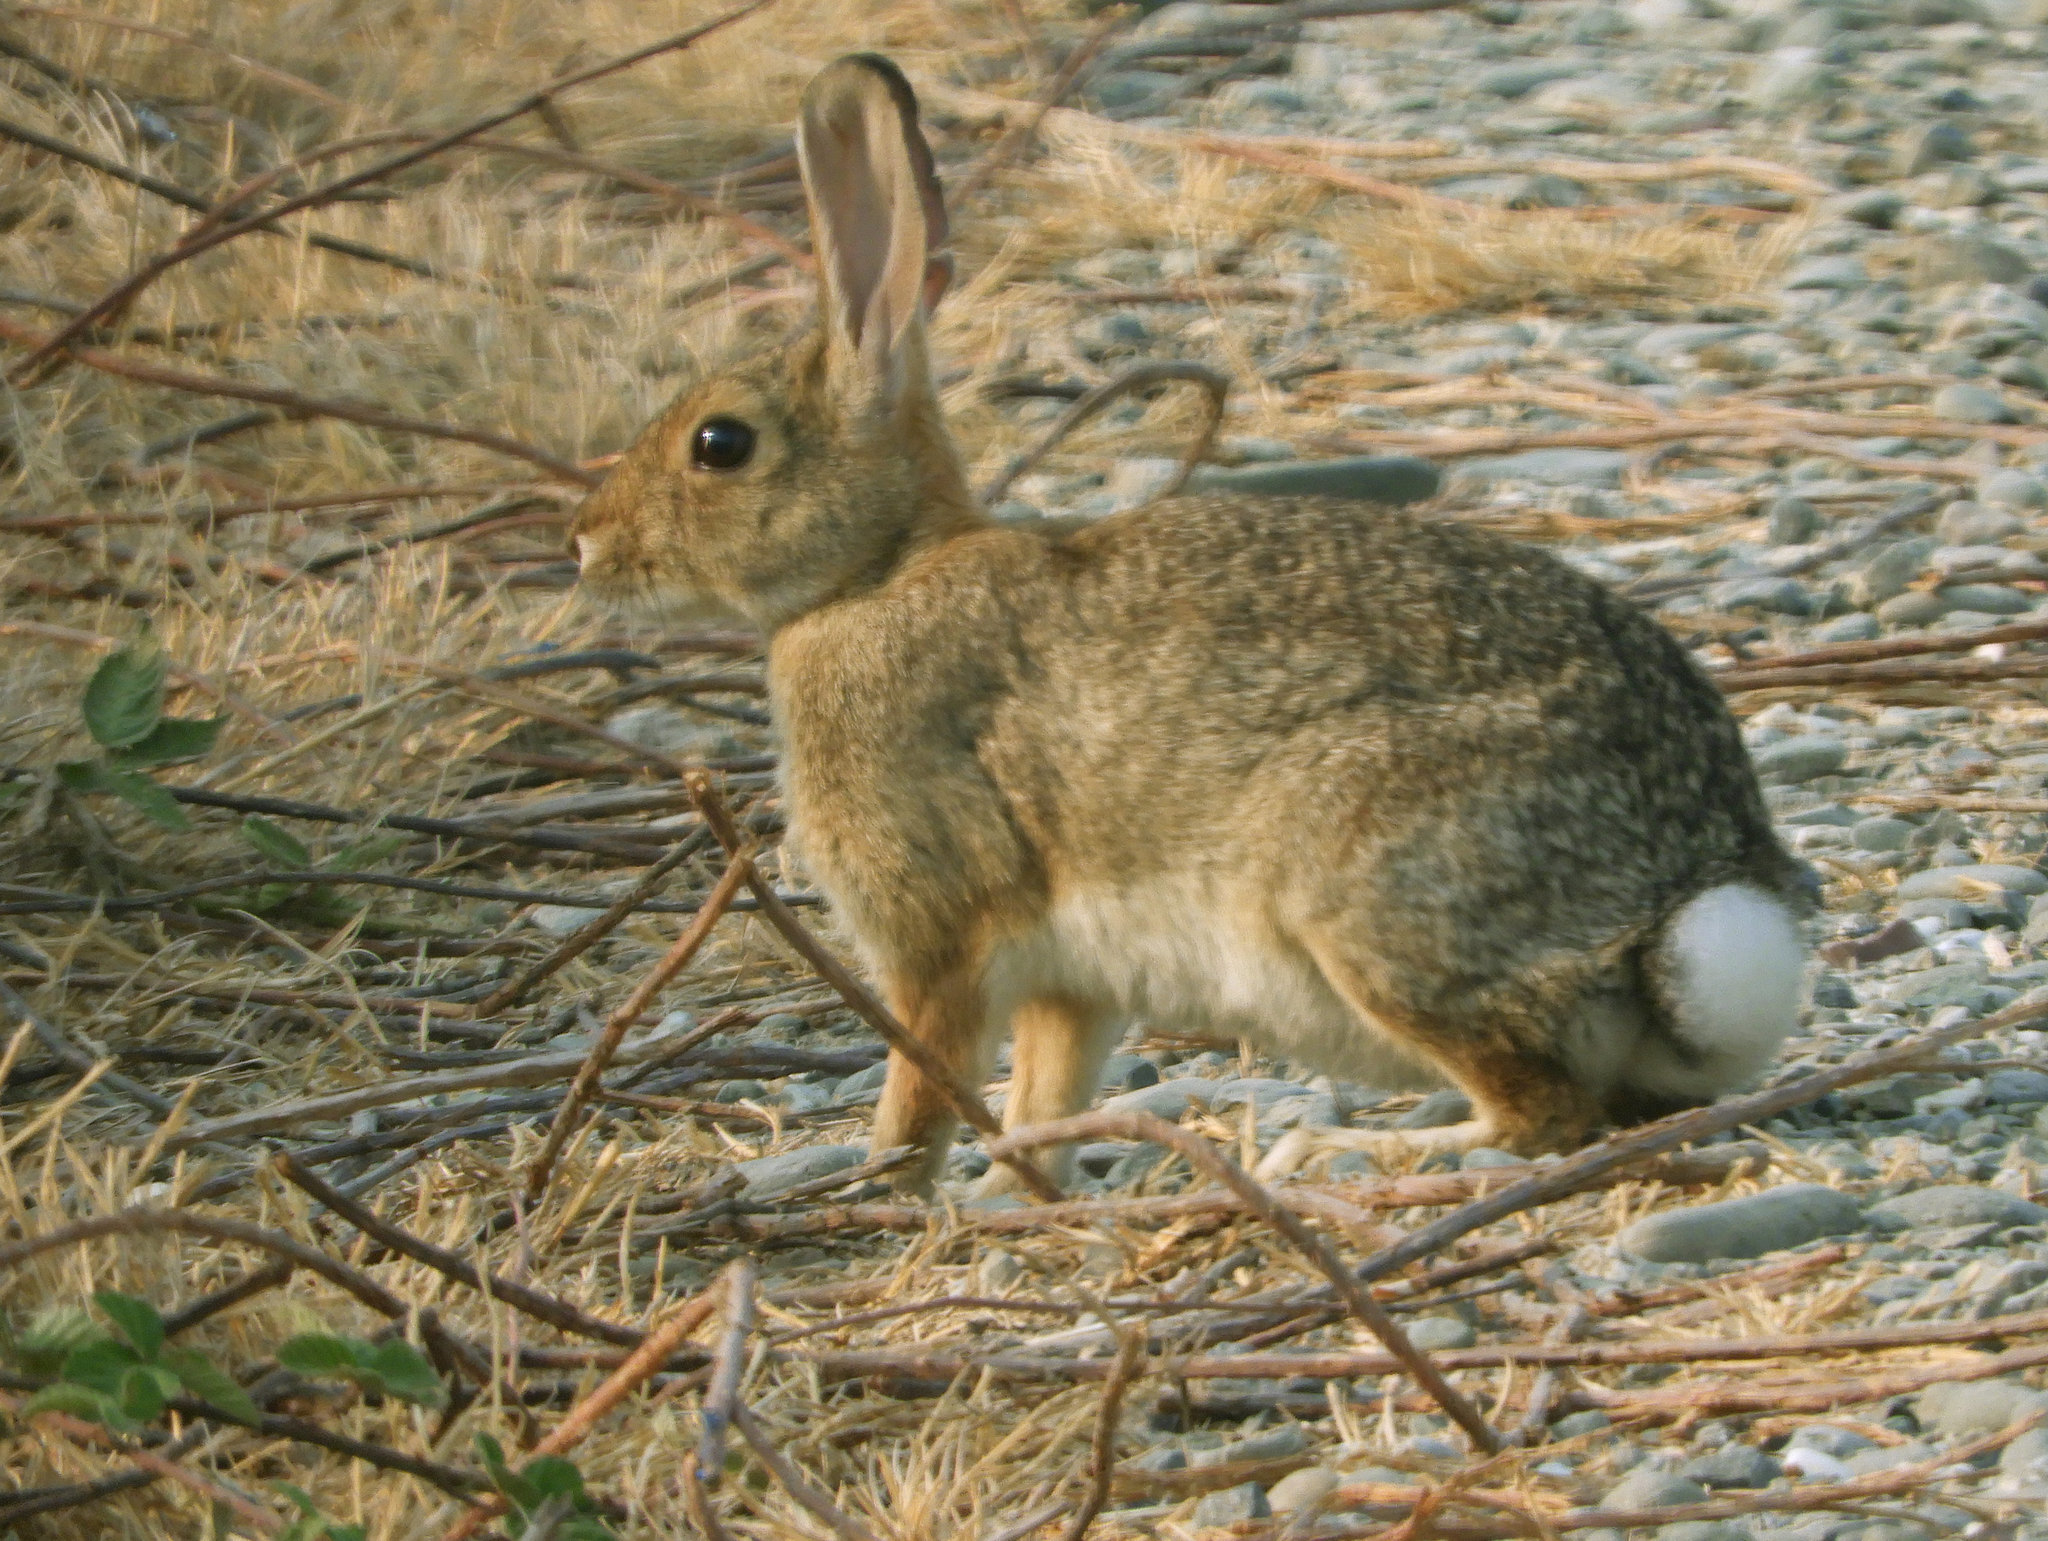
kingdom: Animalia
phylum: Chordata
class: Mammalia
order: Lagomorpha
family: Leporidae
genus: Sylvilagus
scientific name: Sylvilagus audubonii
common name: Desert cottontail
